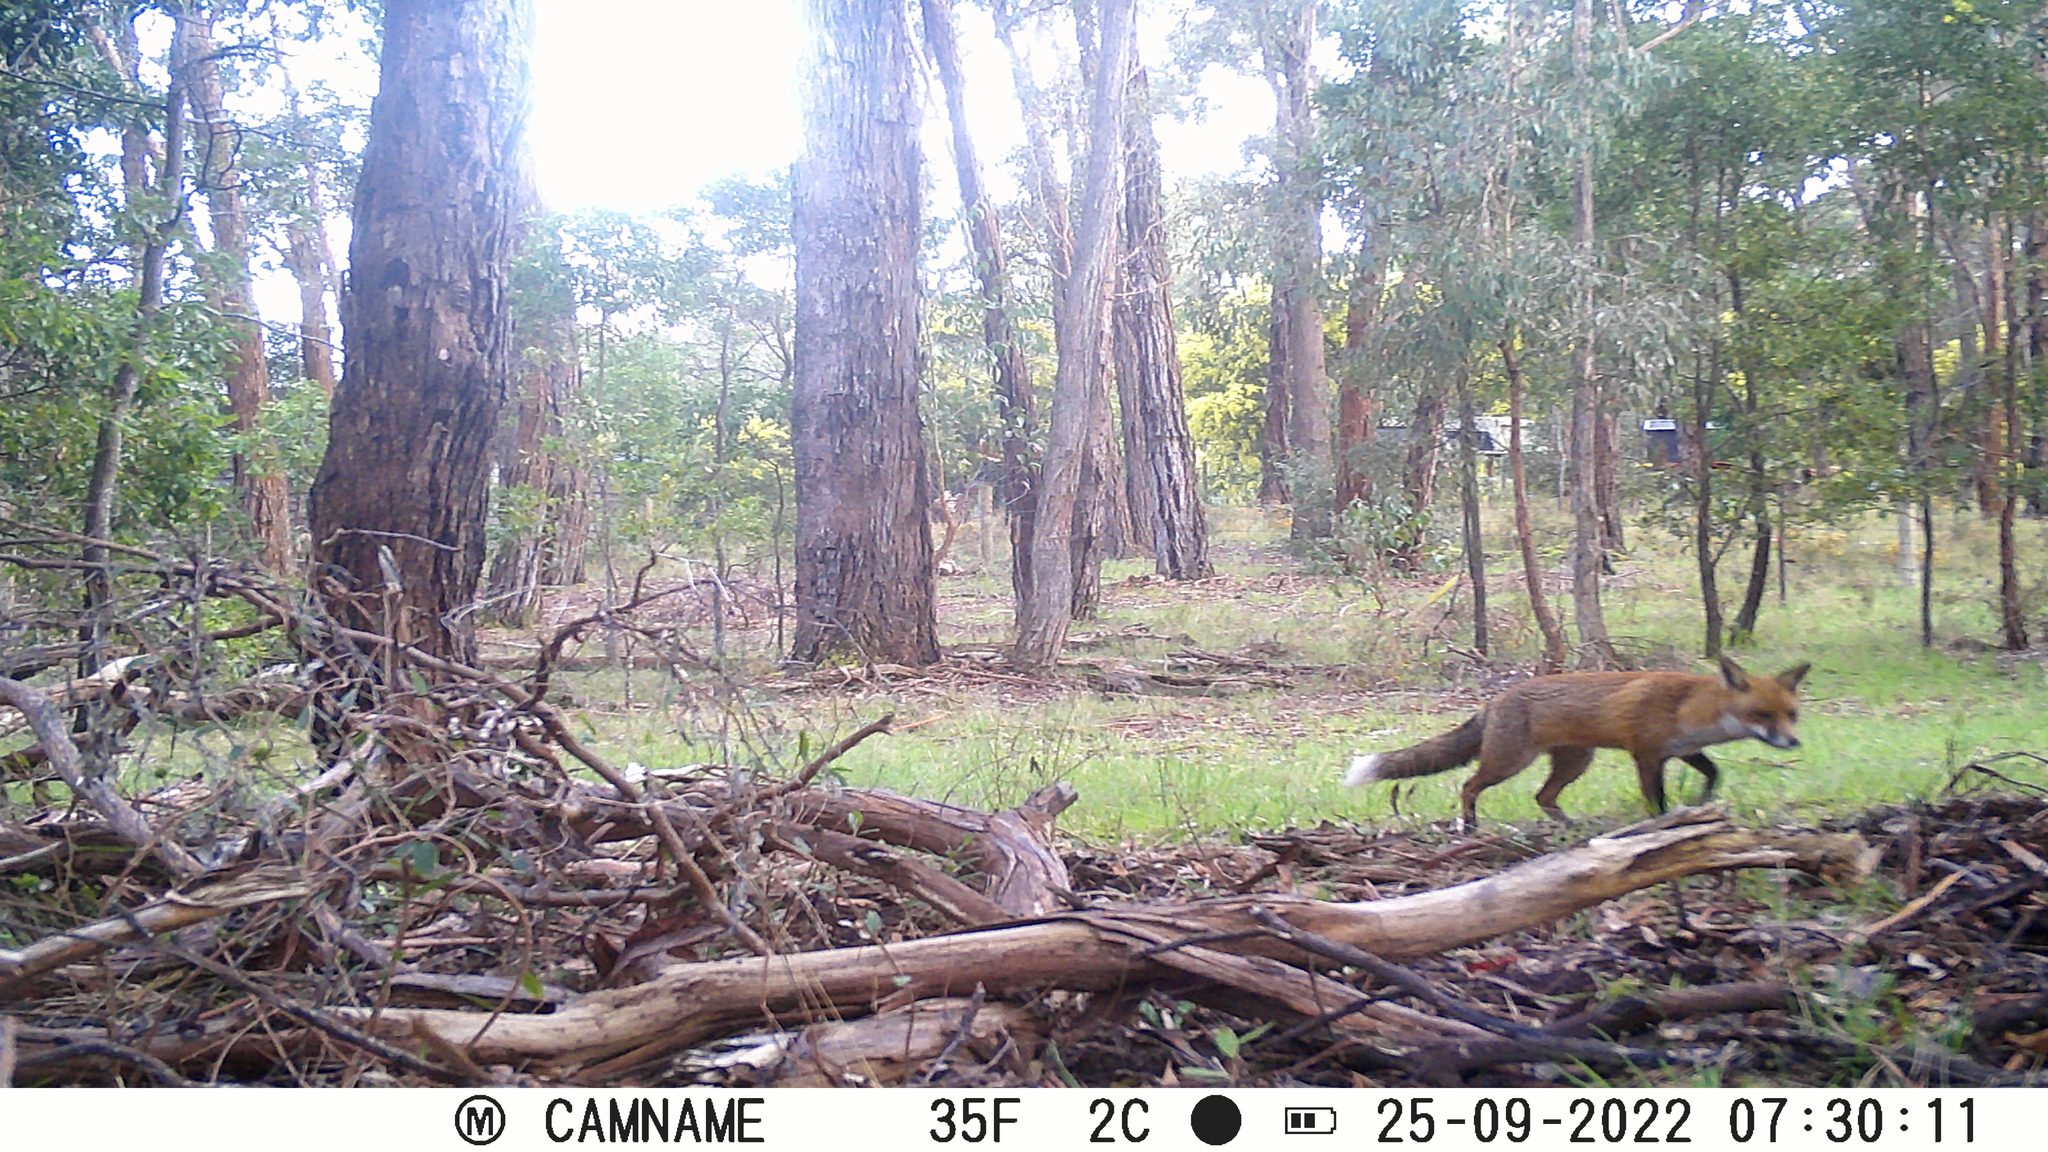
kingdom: Animalia
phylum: Chordata
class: Mammalia
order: Carnivora
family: Canidae
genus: Vulpes
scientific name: Vulpes vulpes
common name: Red fox
